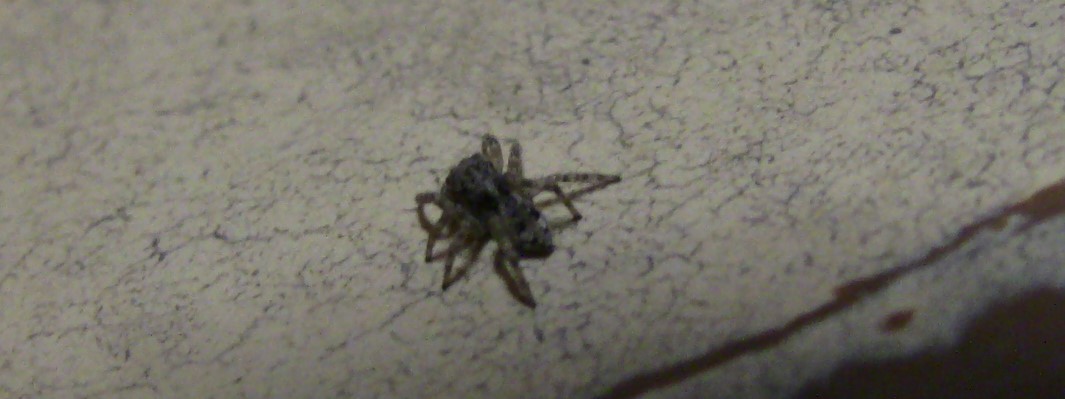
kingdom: Animalia
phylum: Arthropoda
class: Arachnida
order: Araneae
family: Salticidae
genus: Attulus
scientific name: Attulus fasciger
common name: Asiatic wall jumping spider
